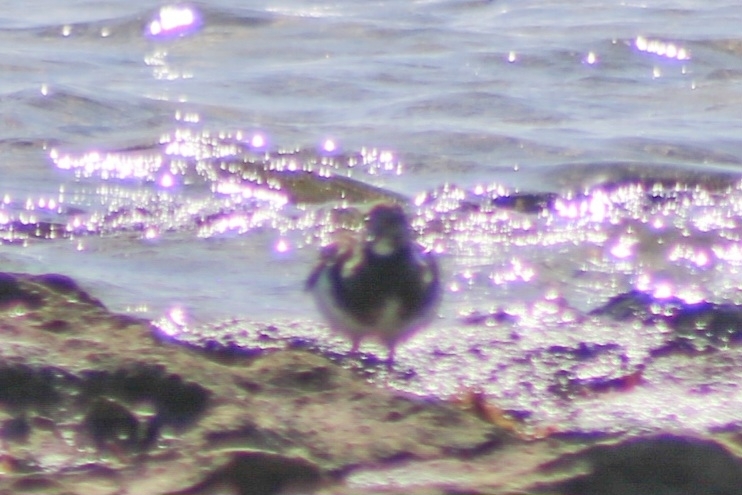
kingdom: Animalia
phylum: Chordata
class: Aves
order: Charadriiformes
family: Scolopacidae
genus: Arenaria
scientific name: Arenaria interpres
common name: Ruddy turnstone
